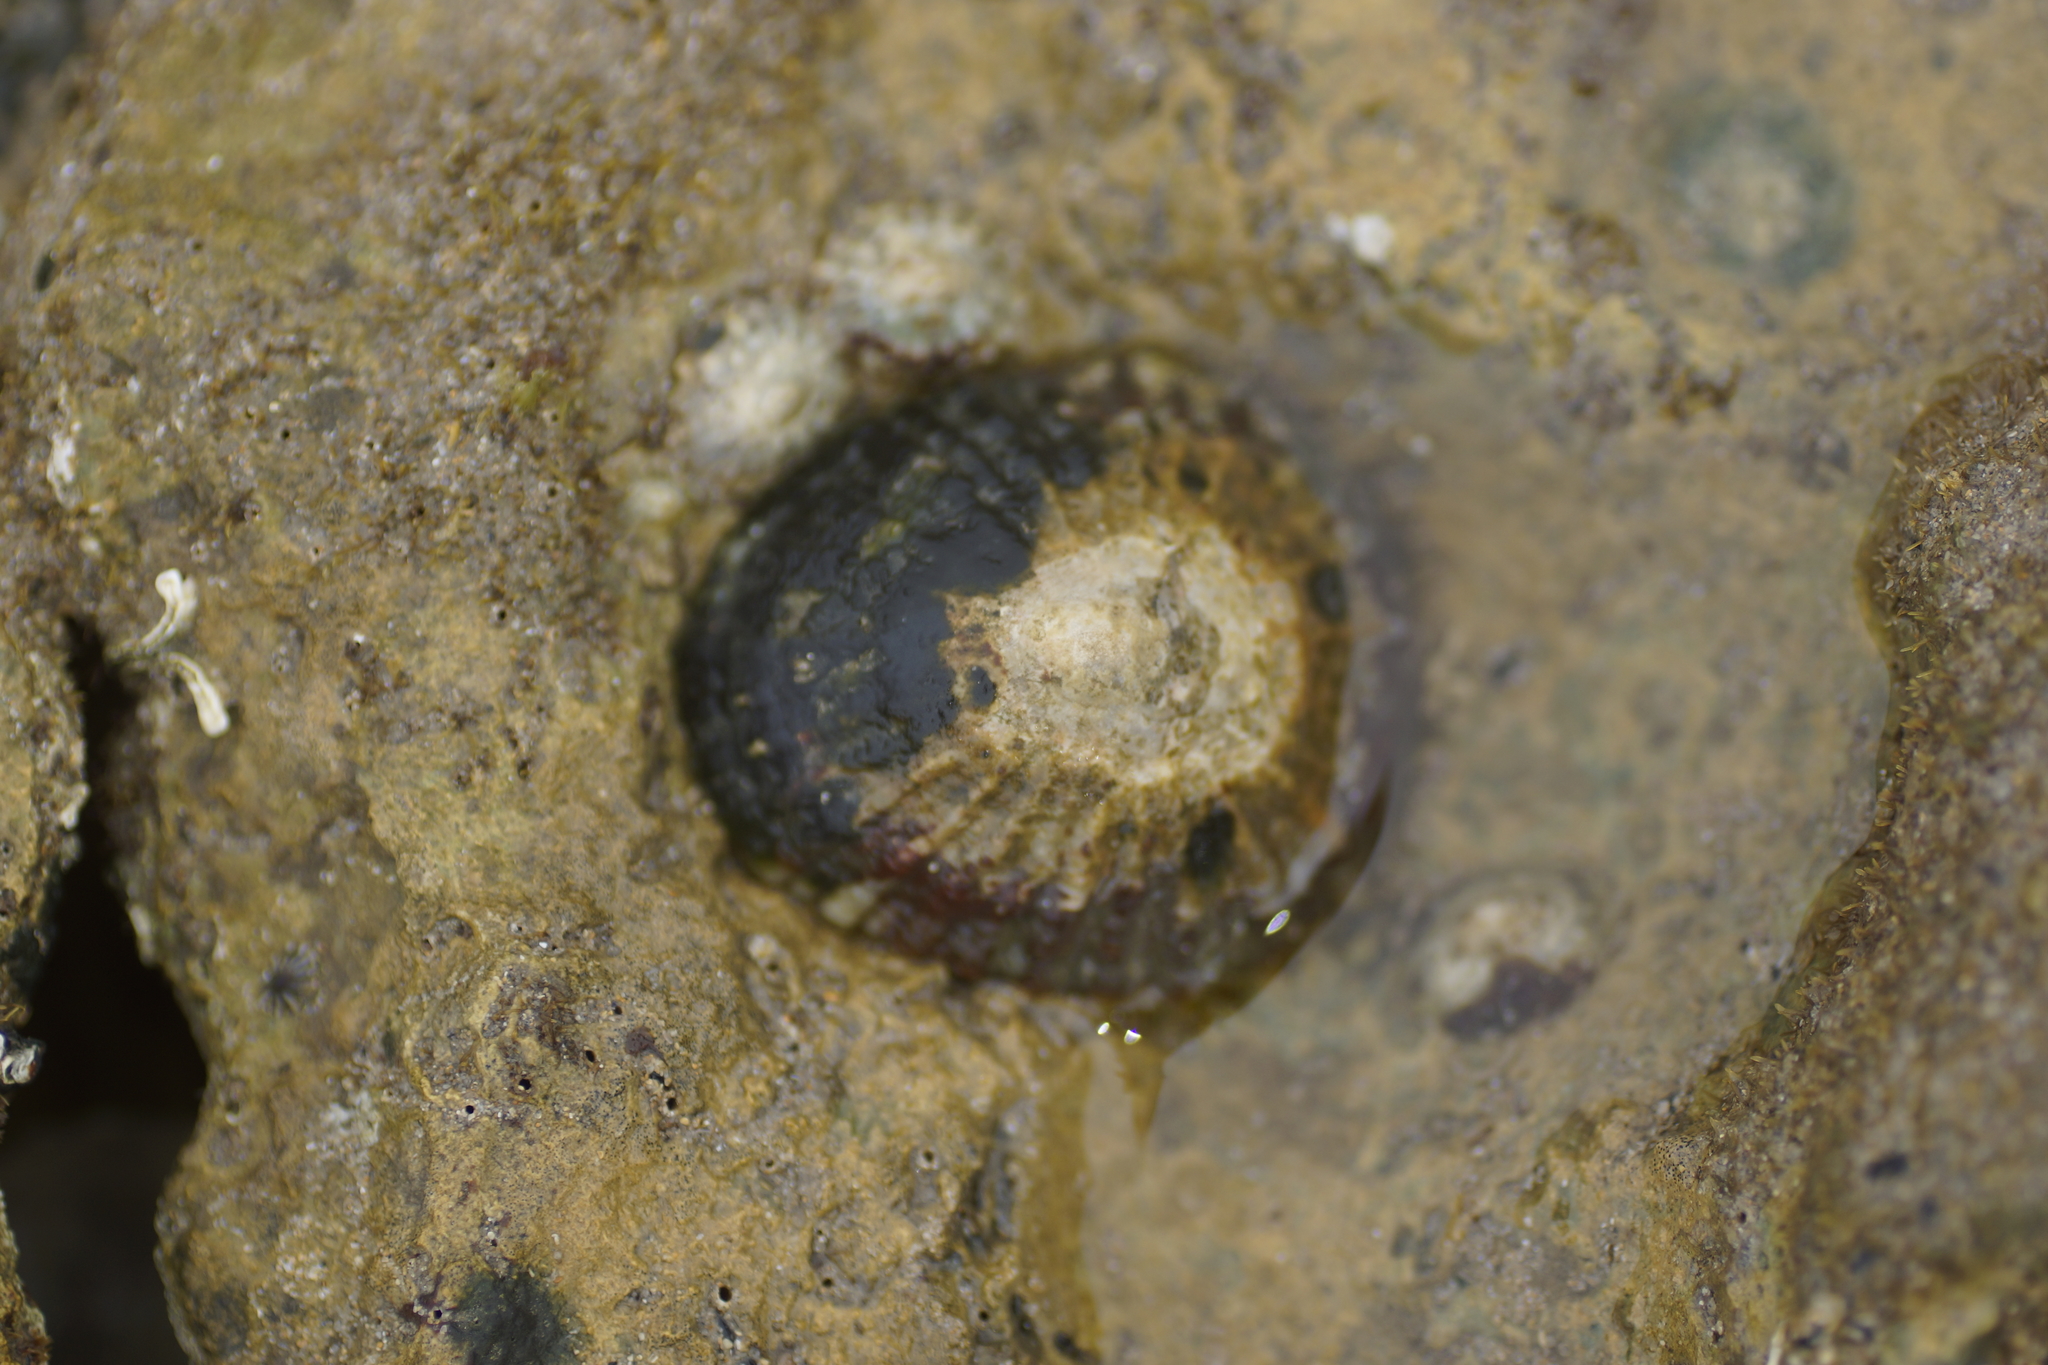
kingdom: Animalia
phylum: Mollusca
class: Gastropoda
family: Nacellidae
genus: Cellana
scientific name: Cellana tramoserica
